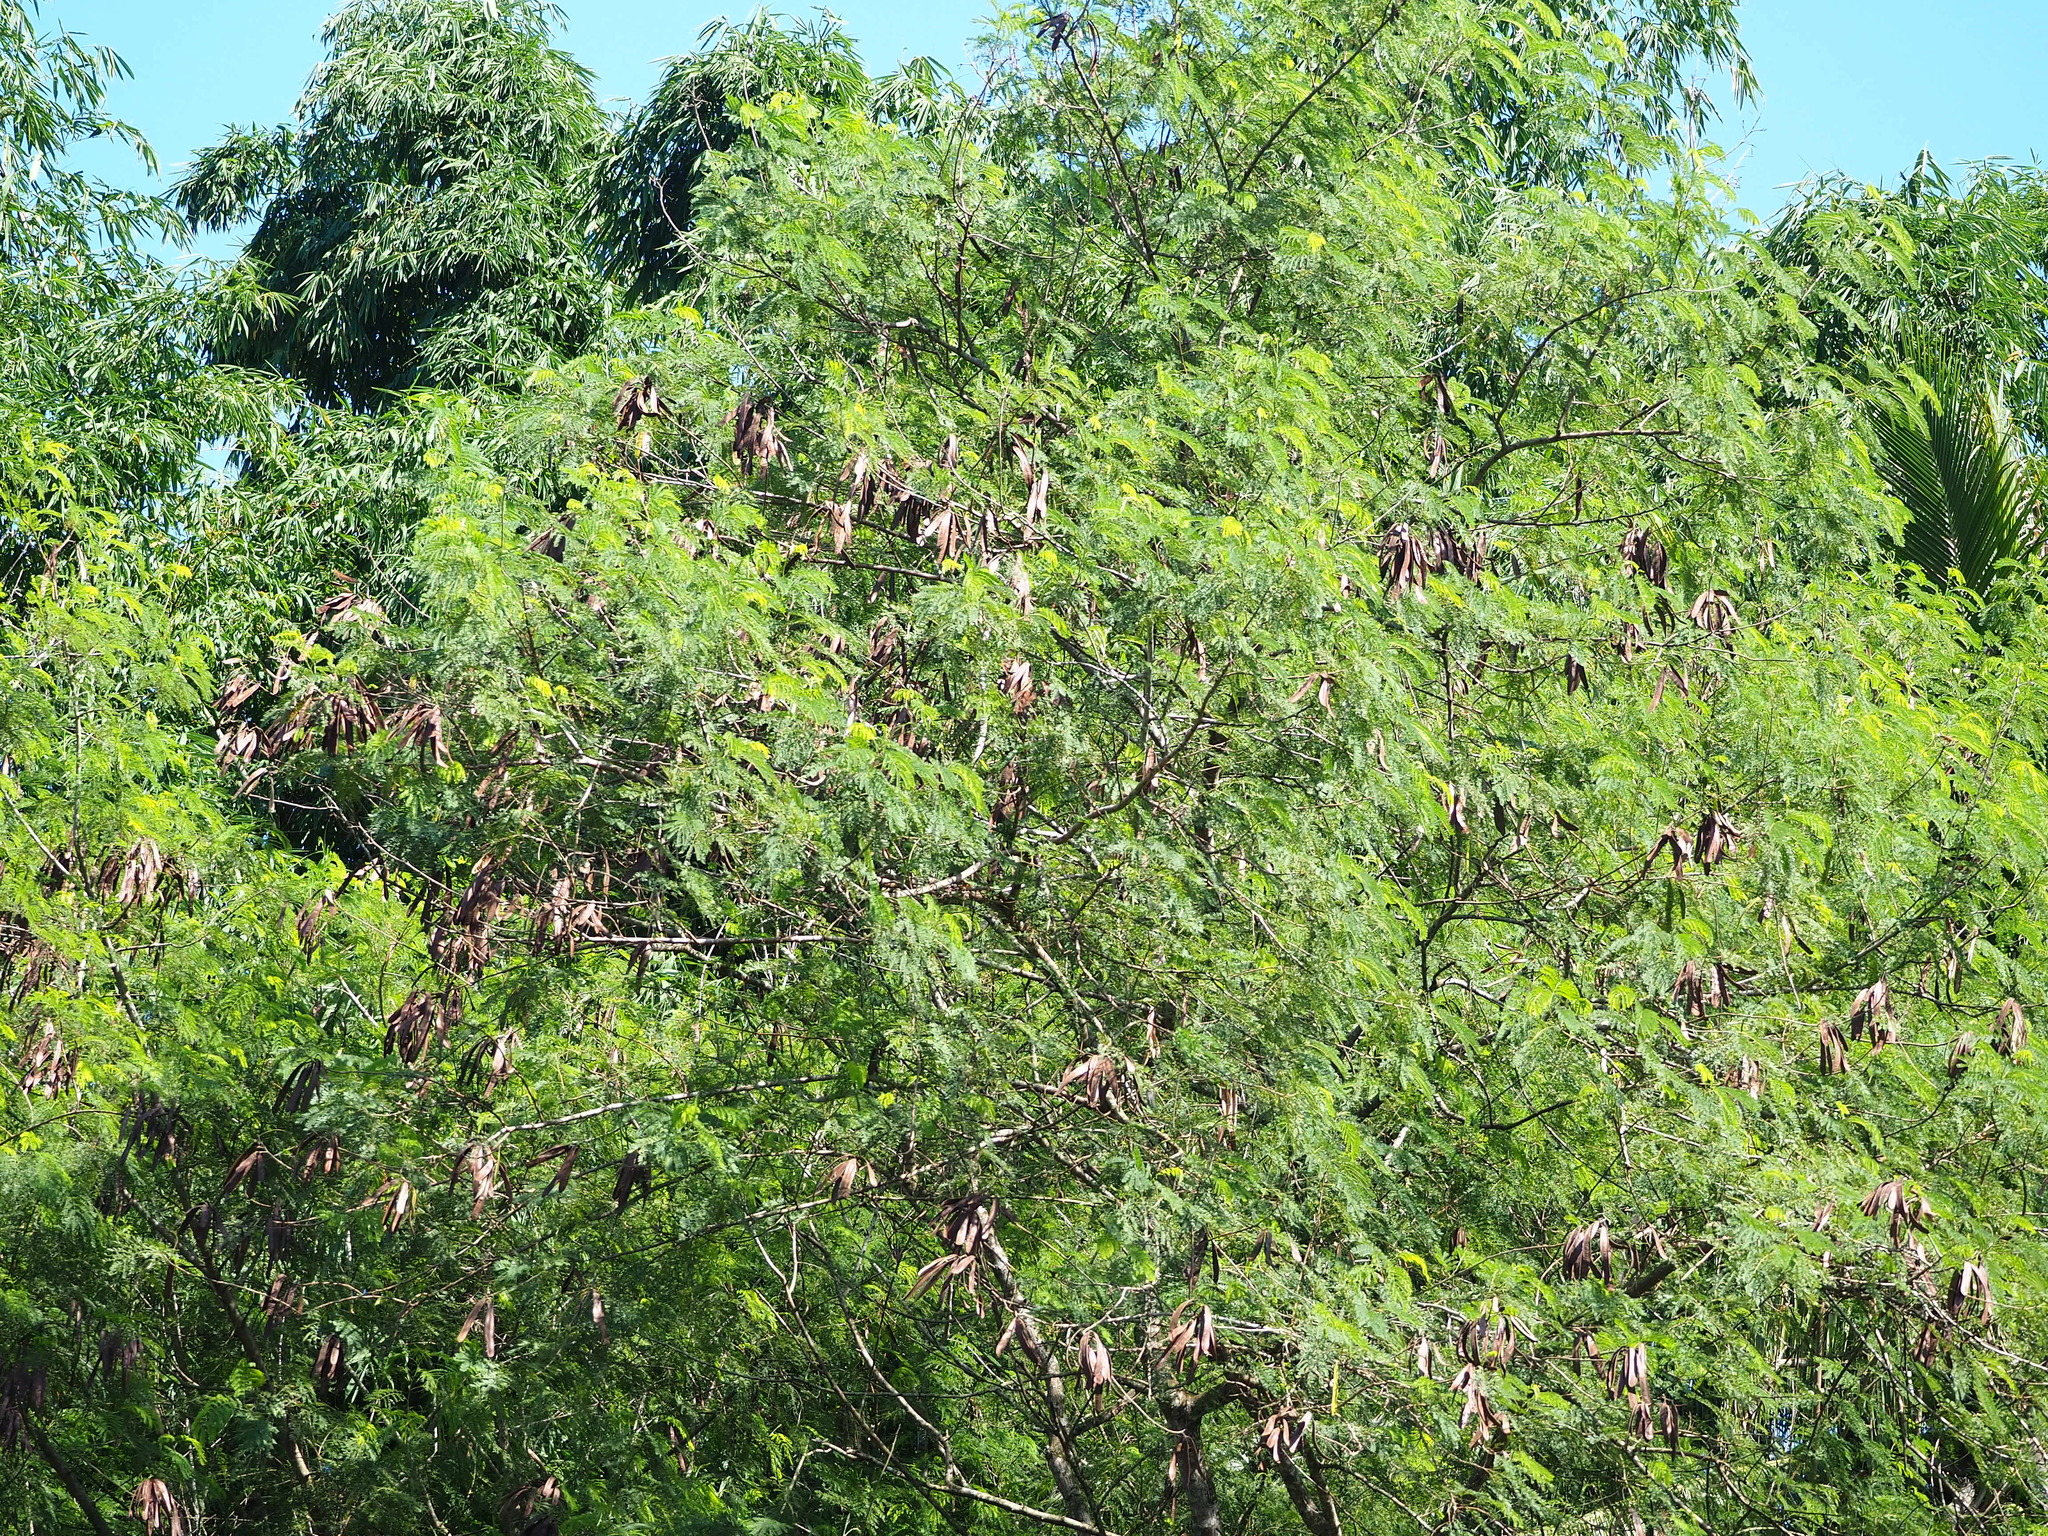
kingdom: Plantae
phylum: Tracheophyta
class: Magnoliopsida
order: Fabales
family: Fabaceae
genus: Leucaena
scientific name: Leucaena leucocephala
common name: White leadtree
